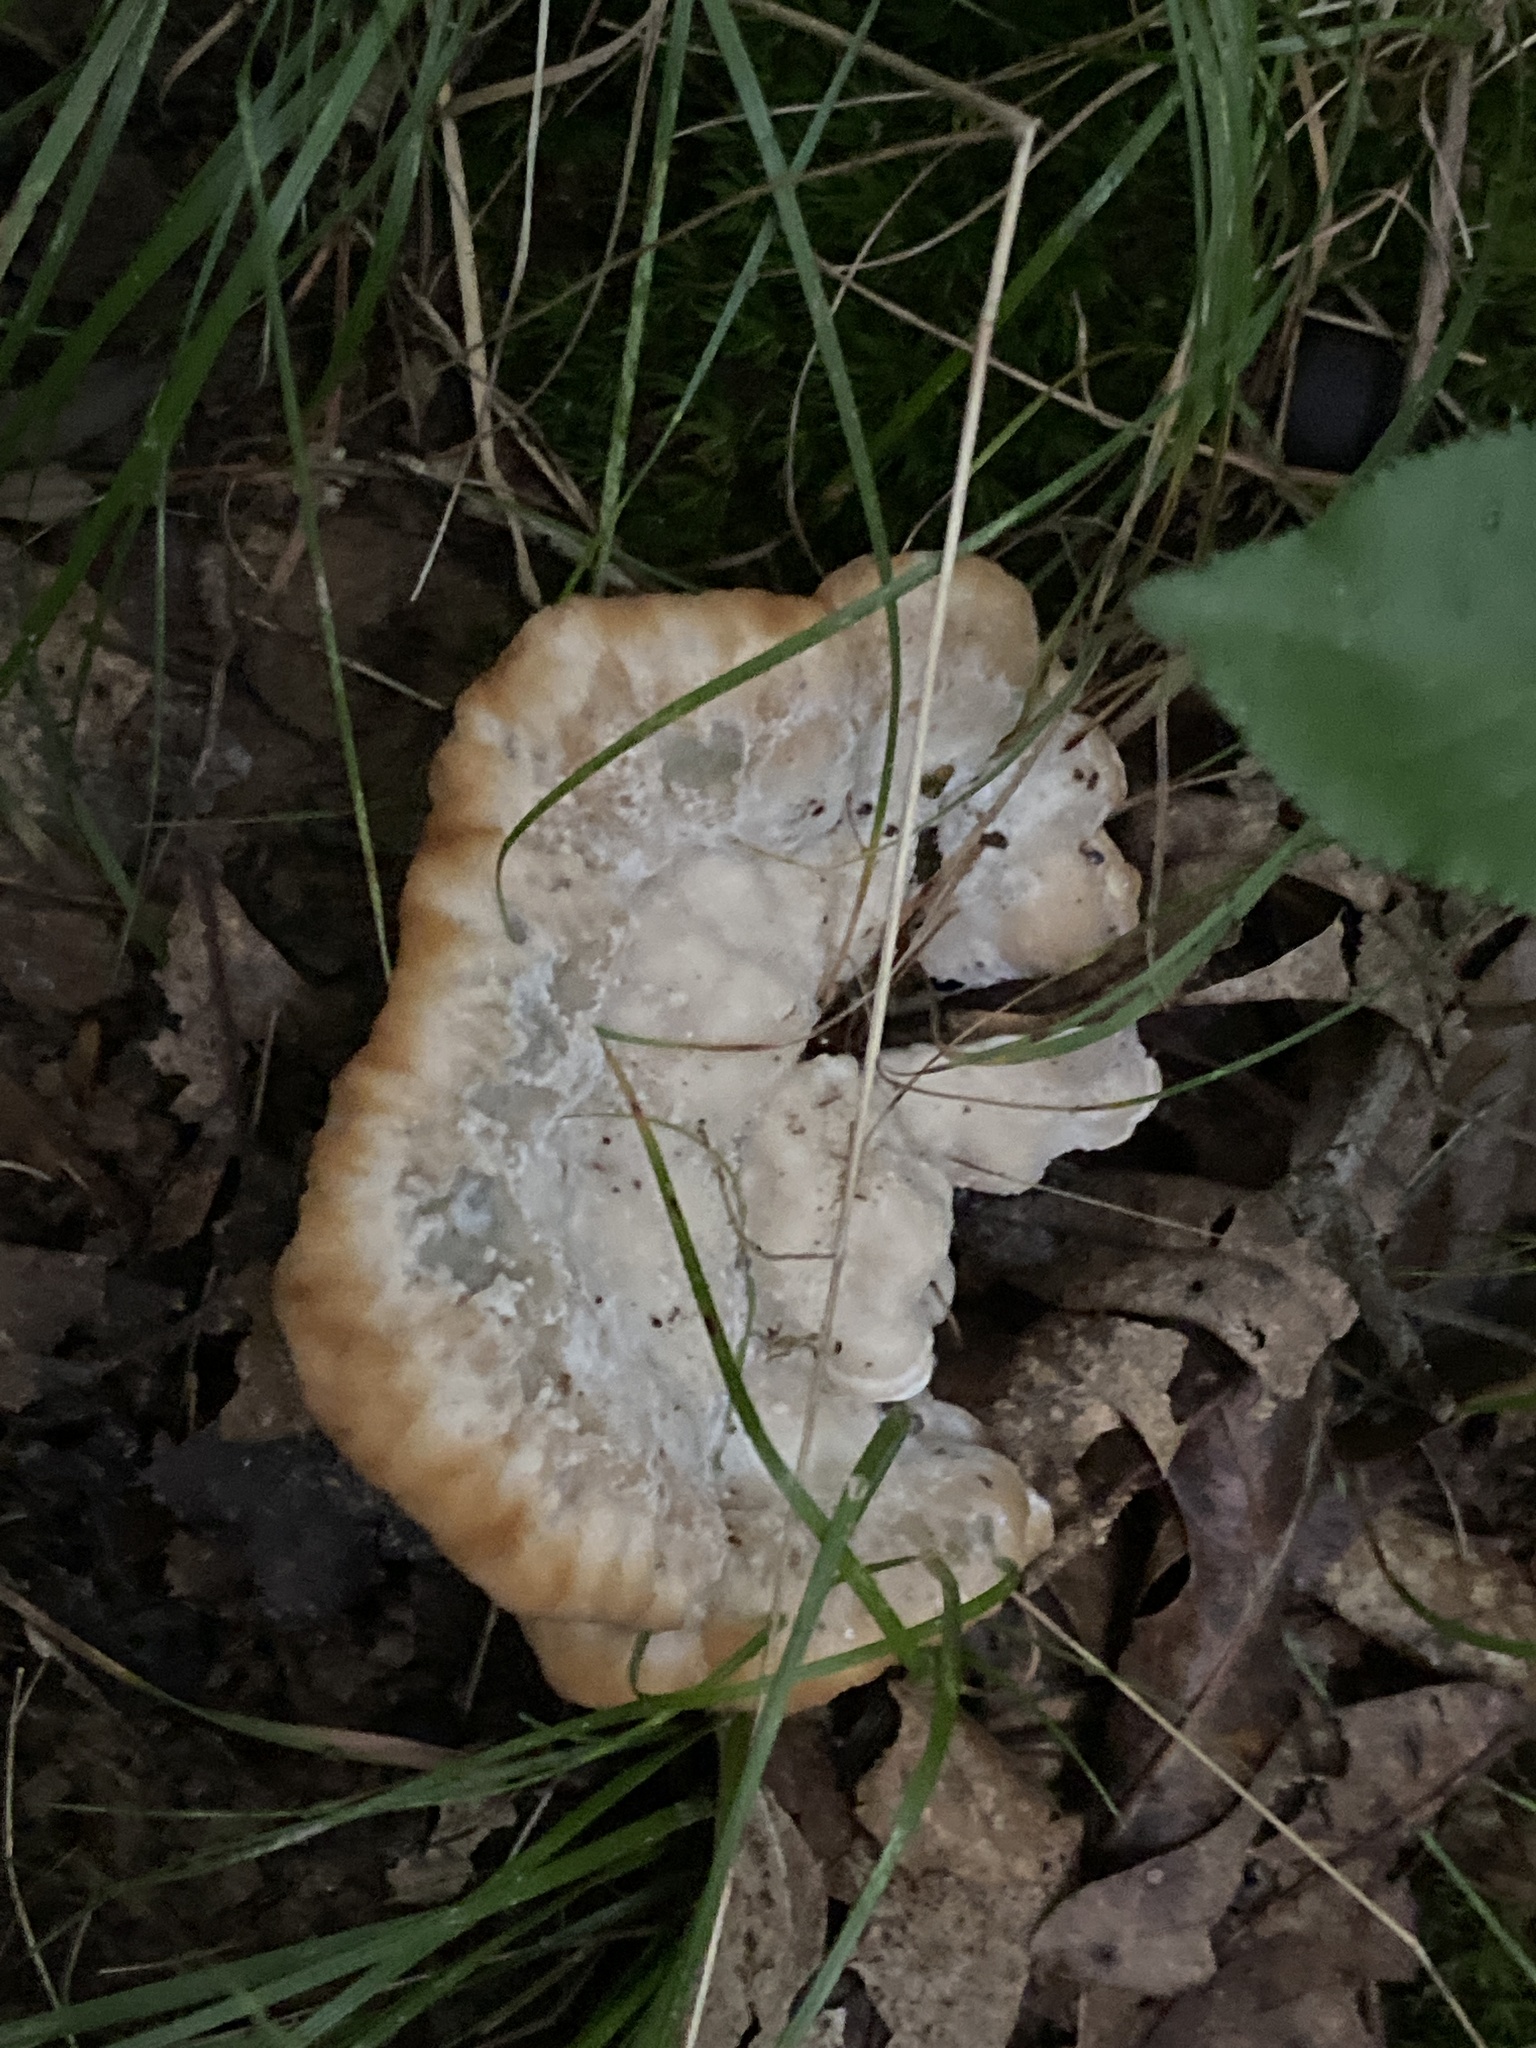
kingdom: Fungi
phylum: Basidiomycota
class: Agaricomycetes
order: Polyporales
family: Fomitopsidaceae
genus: Niveoporofomes
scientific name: Niveoporofomes spraguei
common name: Green cheese polypore
